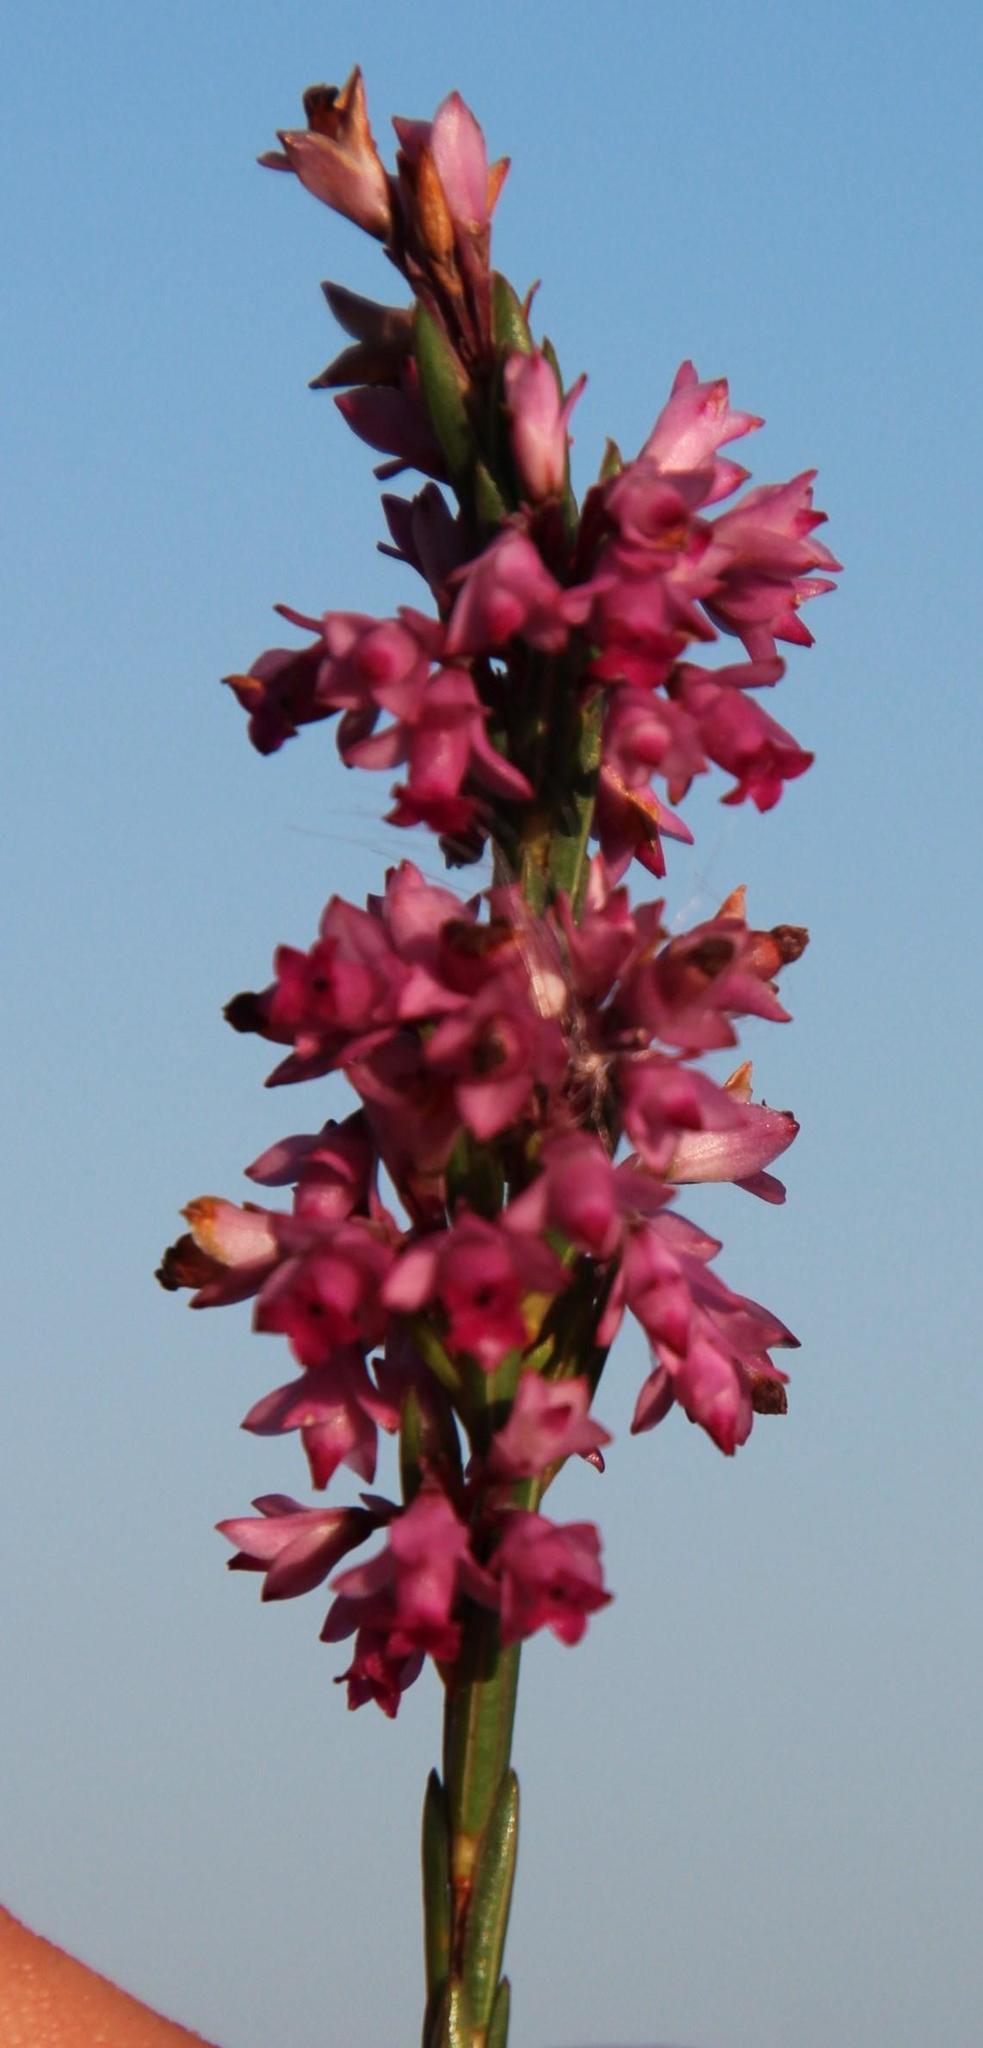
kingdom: Plantae
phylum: Tracheophyta
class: Magnoliopsida
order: Ericales
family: Ericaceae
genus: Erica
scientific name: Erica corifolia
